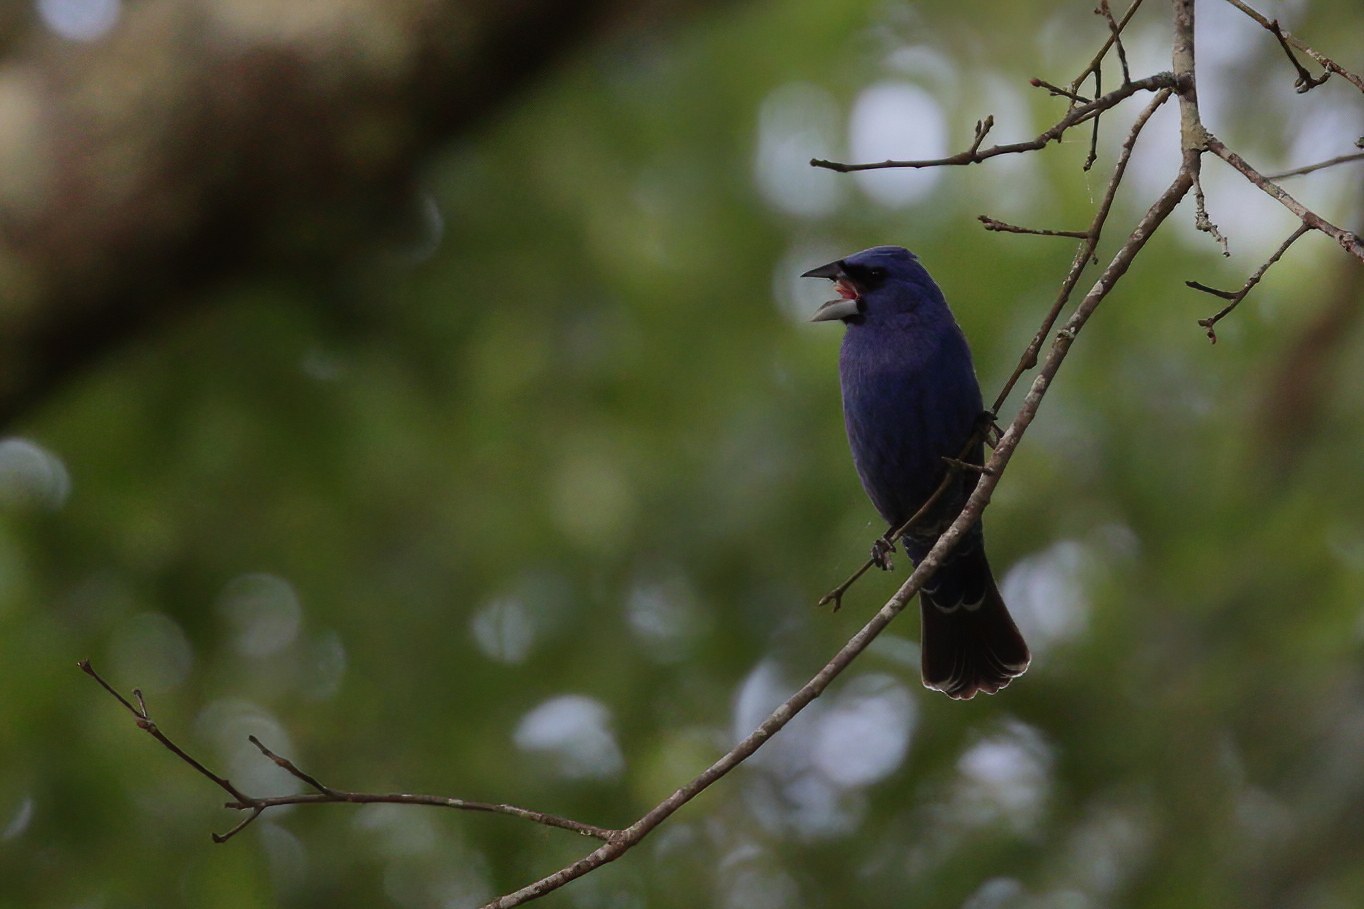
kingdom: Animalia
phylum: Chordata
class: Aves
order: Passeriformes
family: Cardinalidae
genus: Passerina
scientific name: Passerina caerulea
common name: Blue grosbeak
